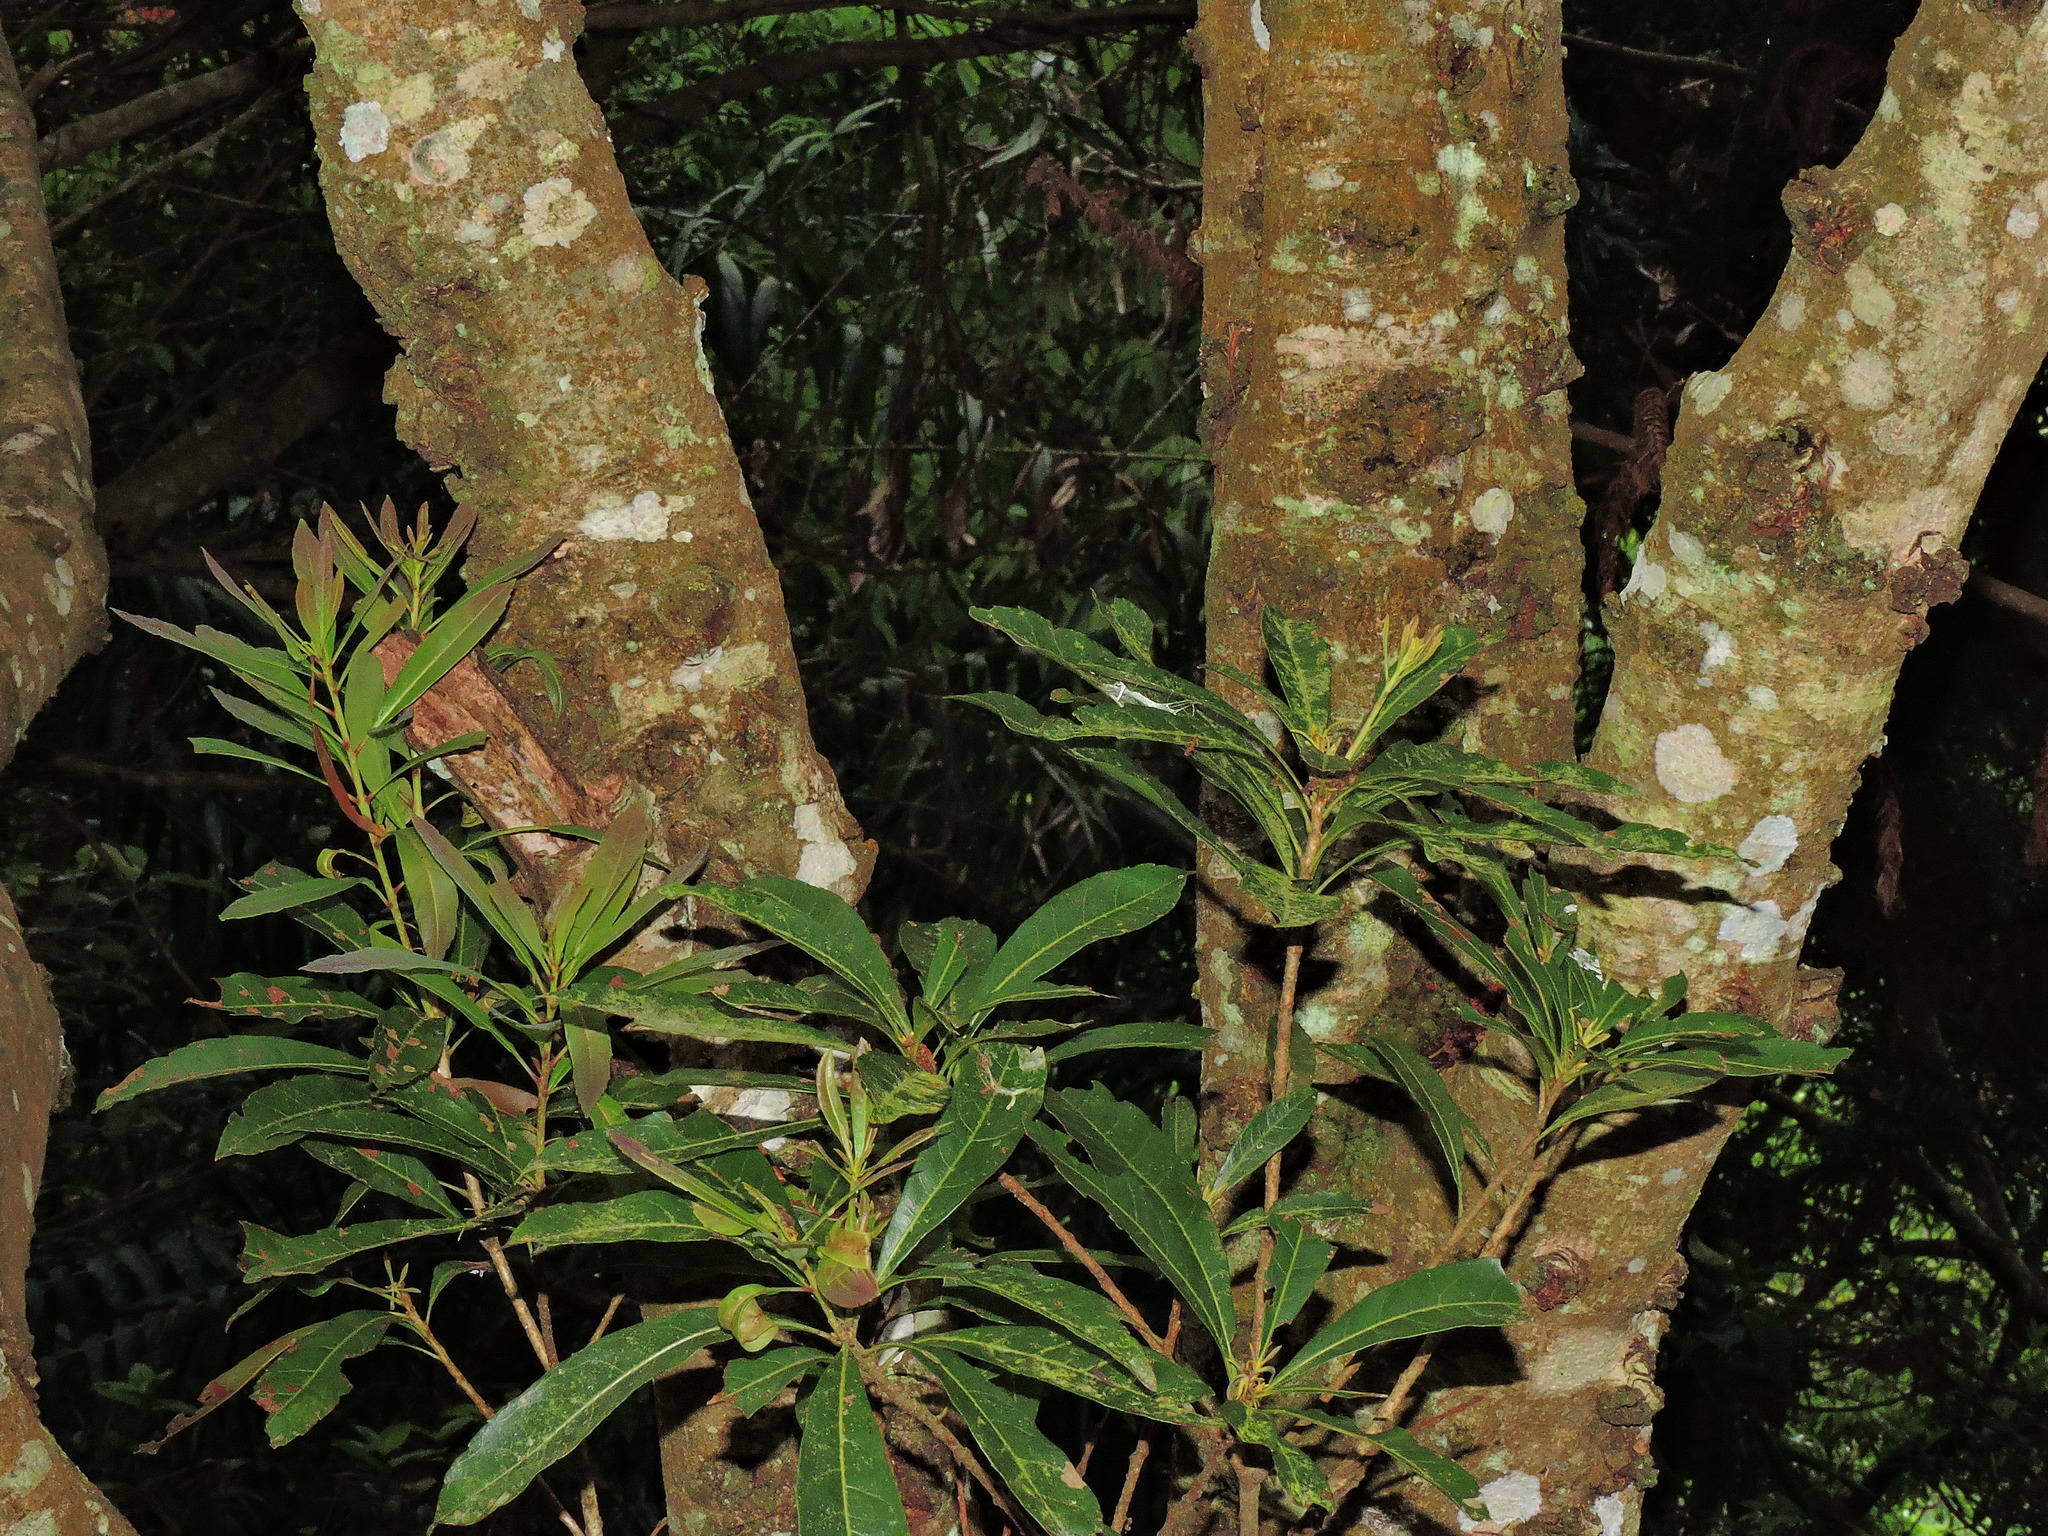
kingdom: Plantae
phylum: Tracheophyta
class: Magnoliopsida
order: Fagales
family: Myricaceae
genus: Morella
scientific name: Morella rubra
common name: Red bayberry
